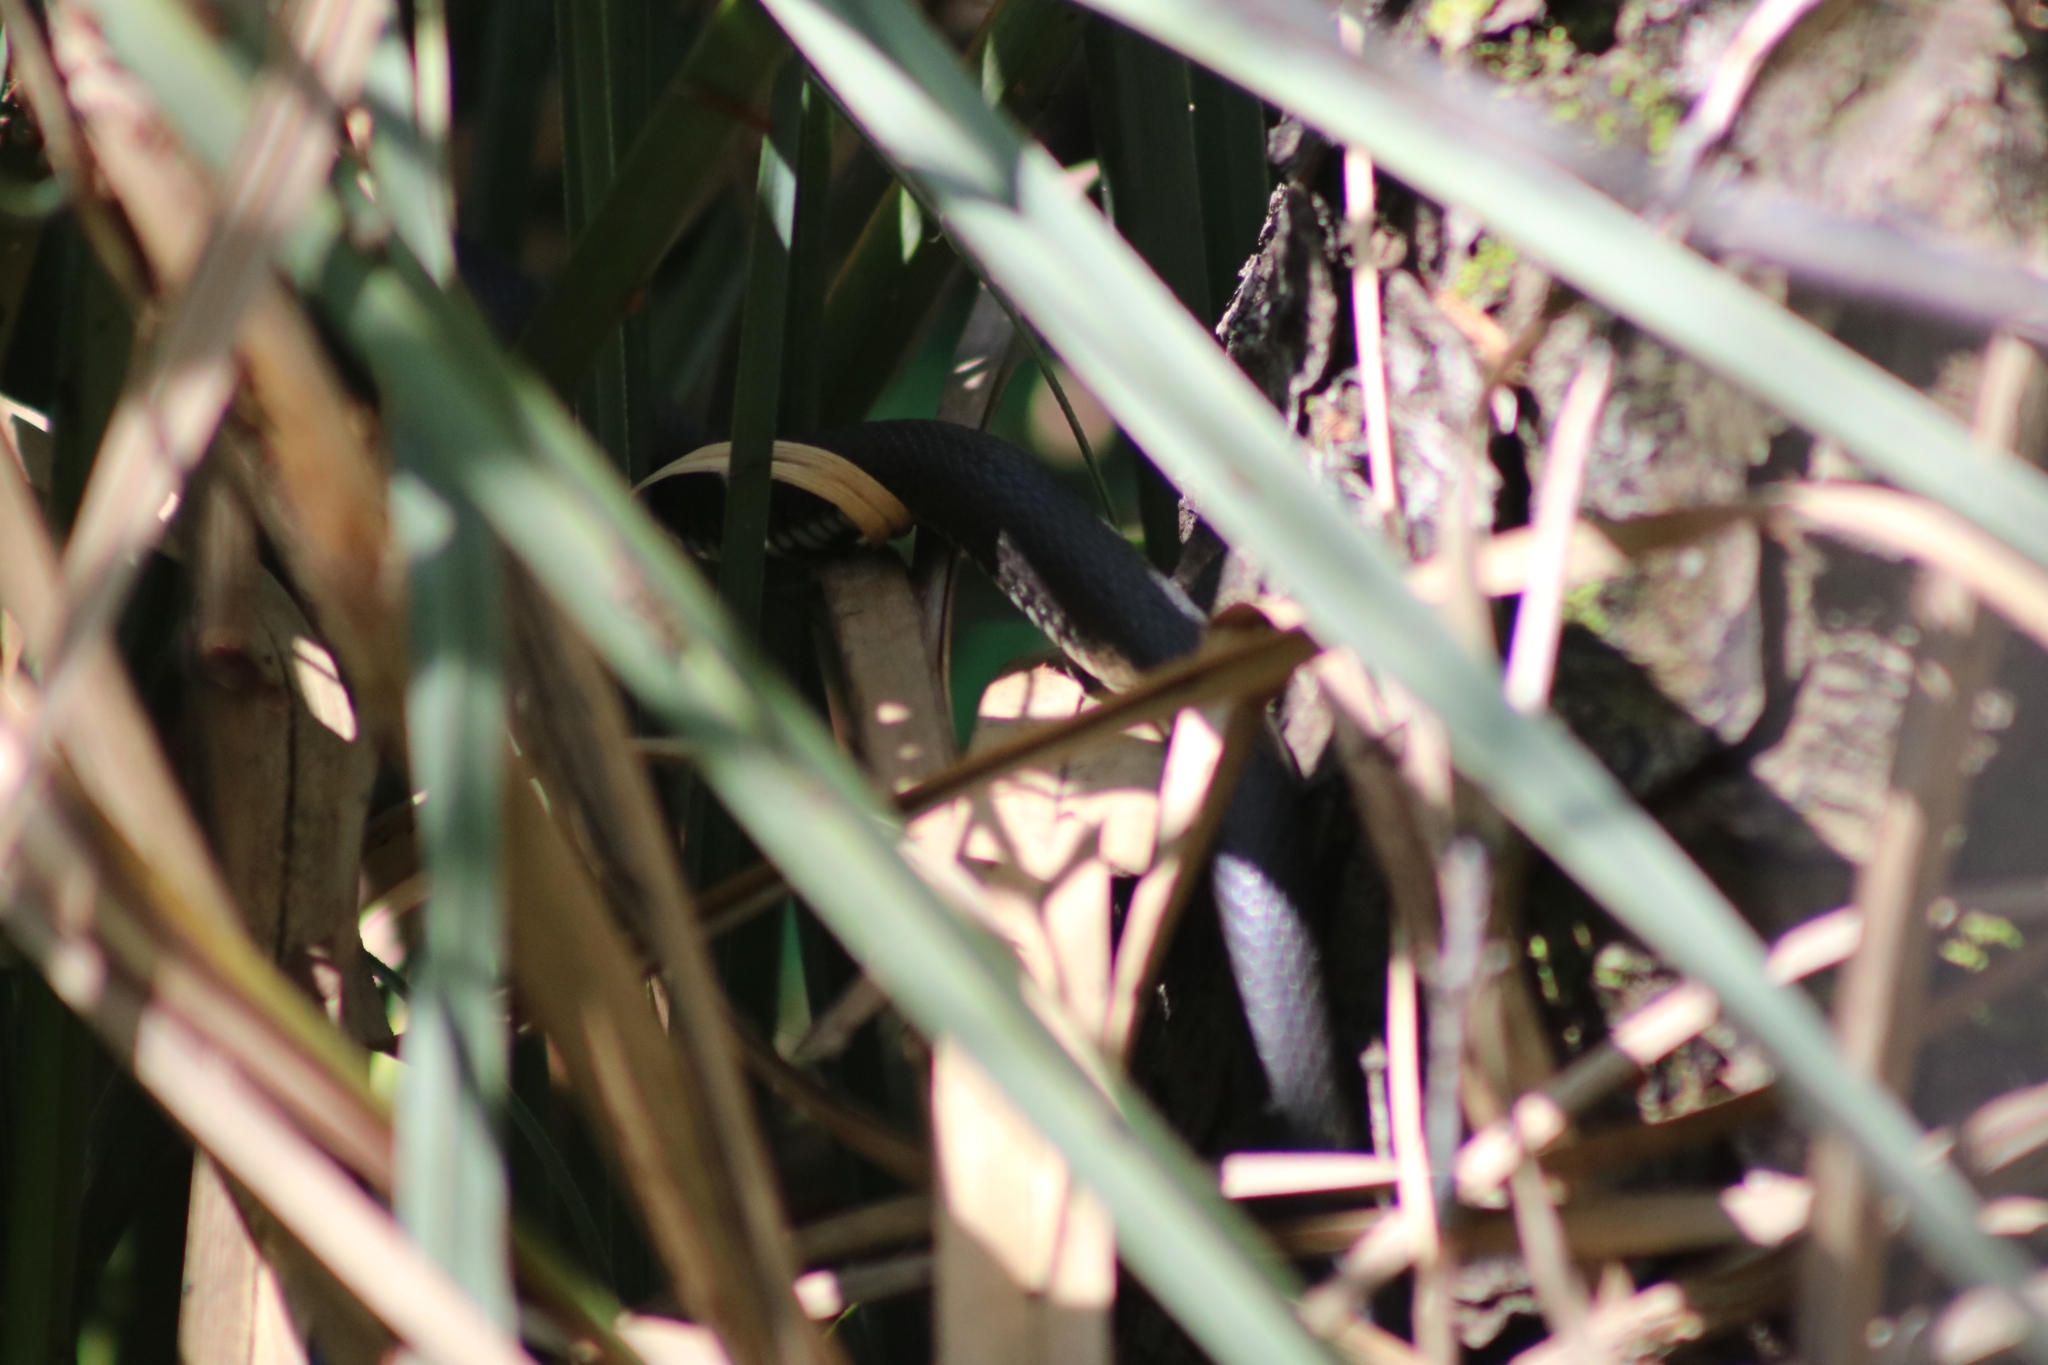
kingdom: Animalia
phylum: Chordata
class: Squamata
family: Colubridae
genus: Natrix
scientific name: Natrix natrix
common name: Grass snake
